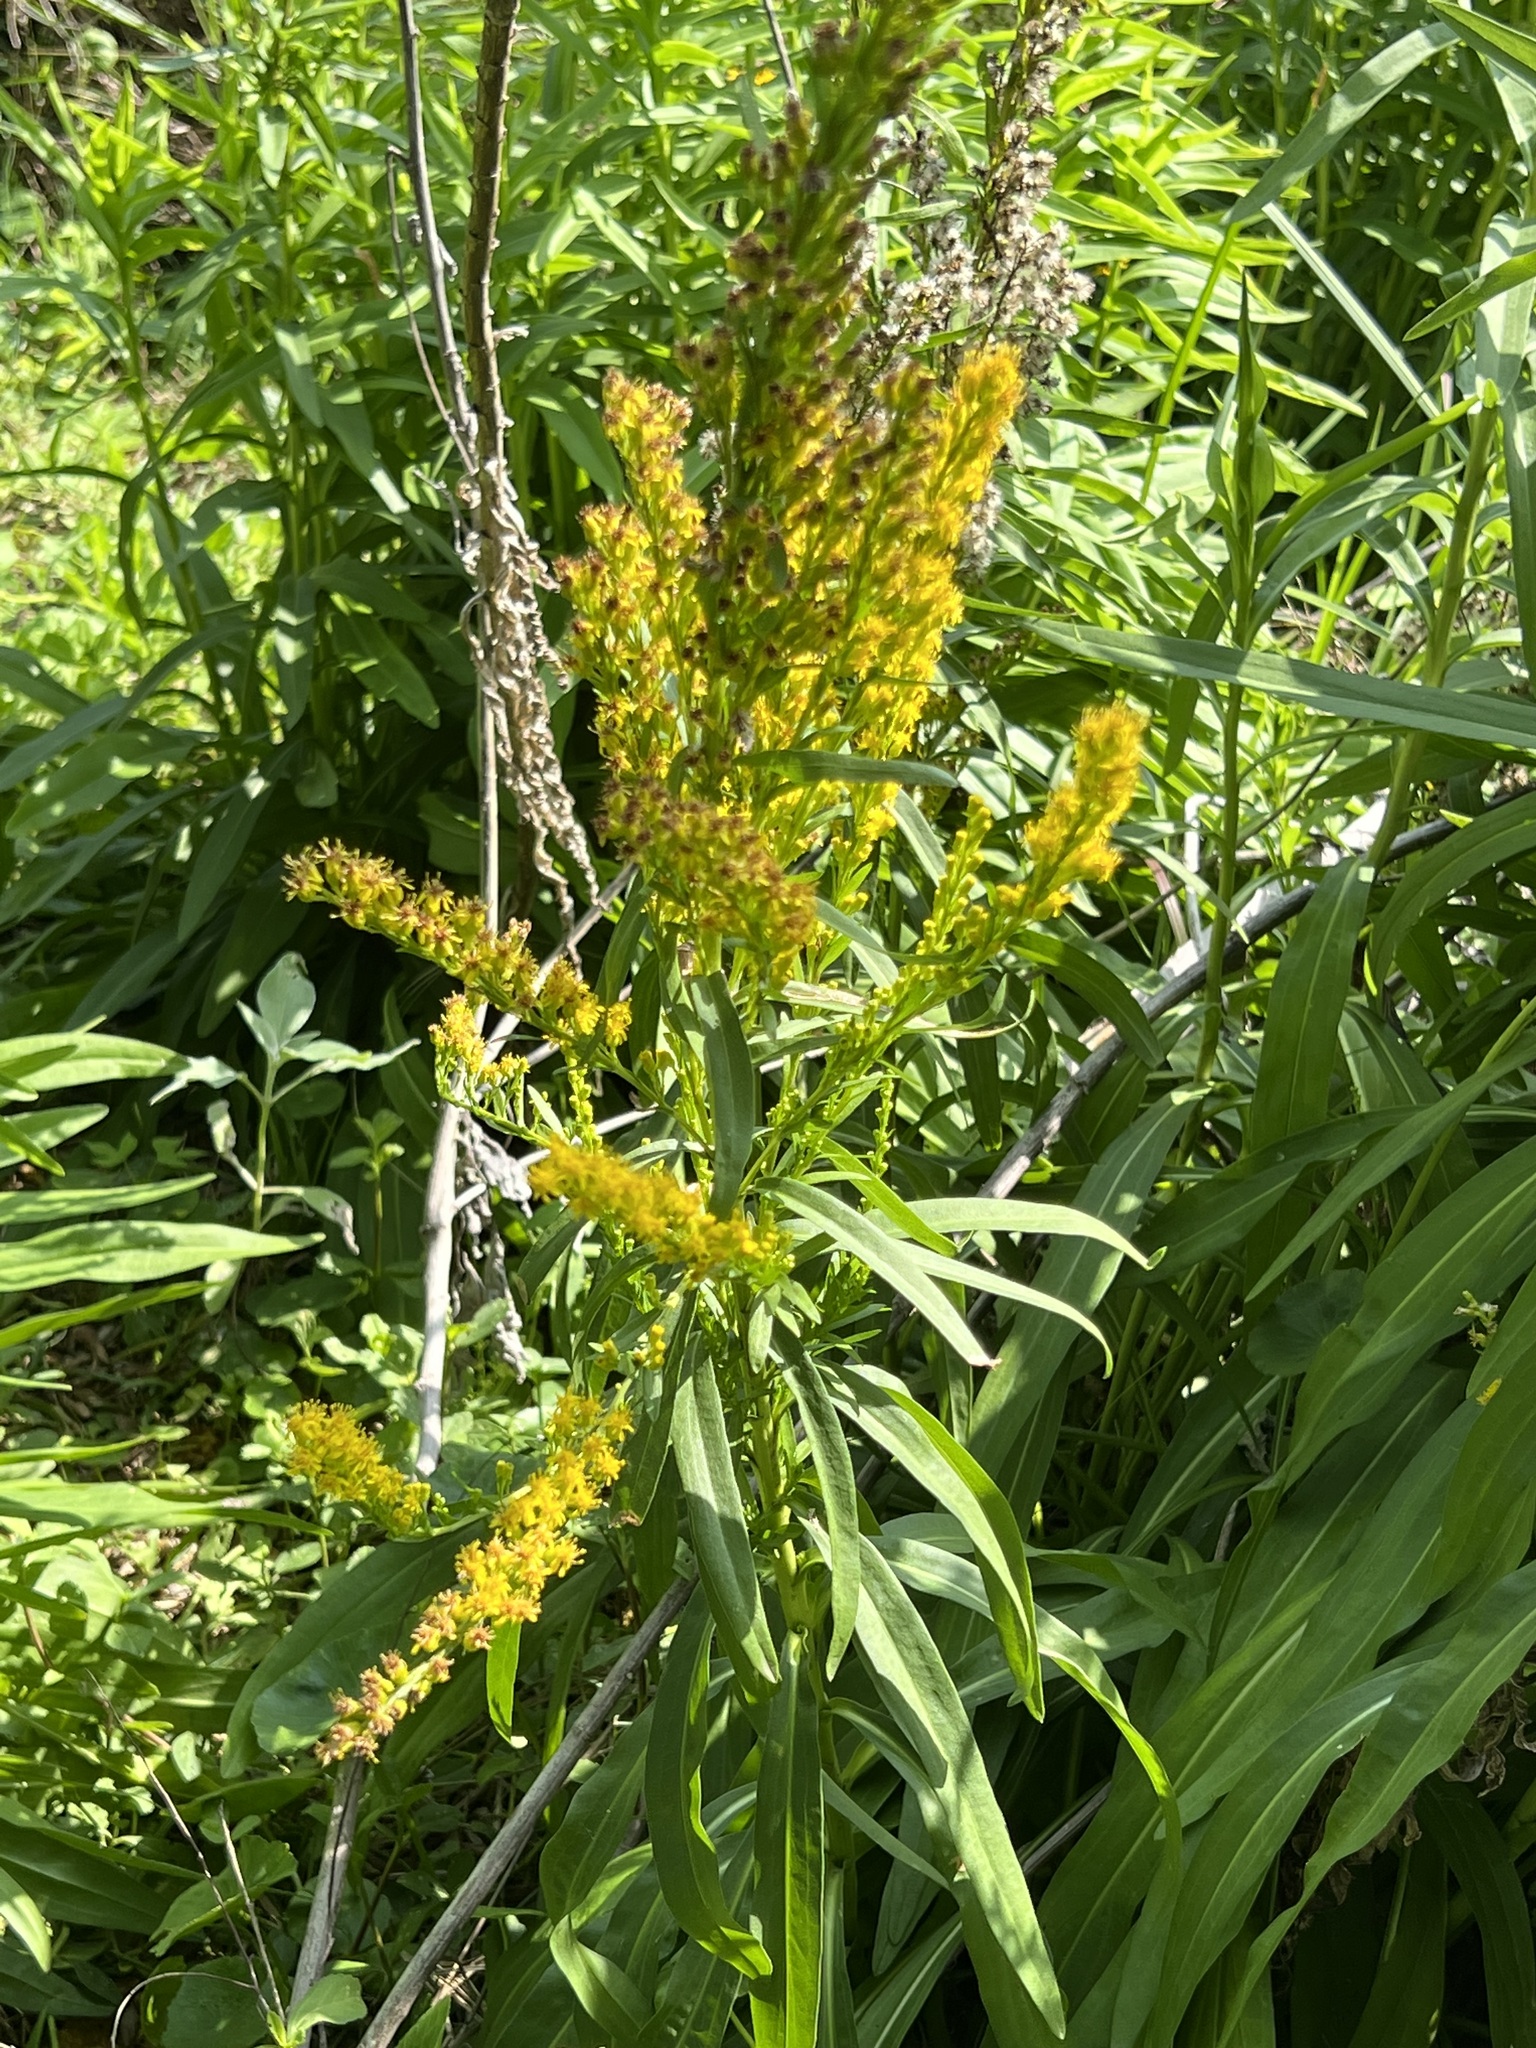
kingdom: Plantae
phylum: Tracheophyta
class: Magnoliopsida
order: Asterales
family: Asteraceae
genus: Solidago
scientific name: Solidago mexicana
